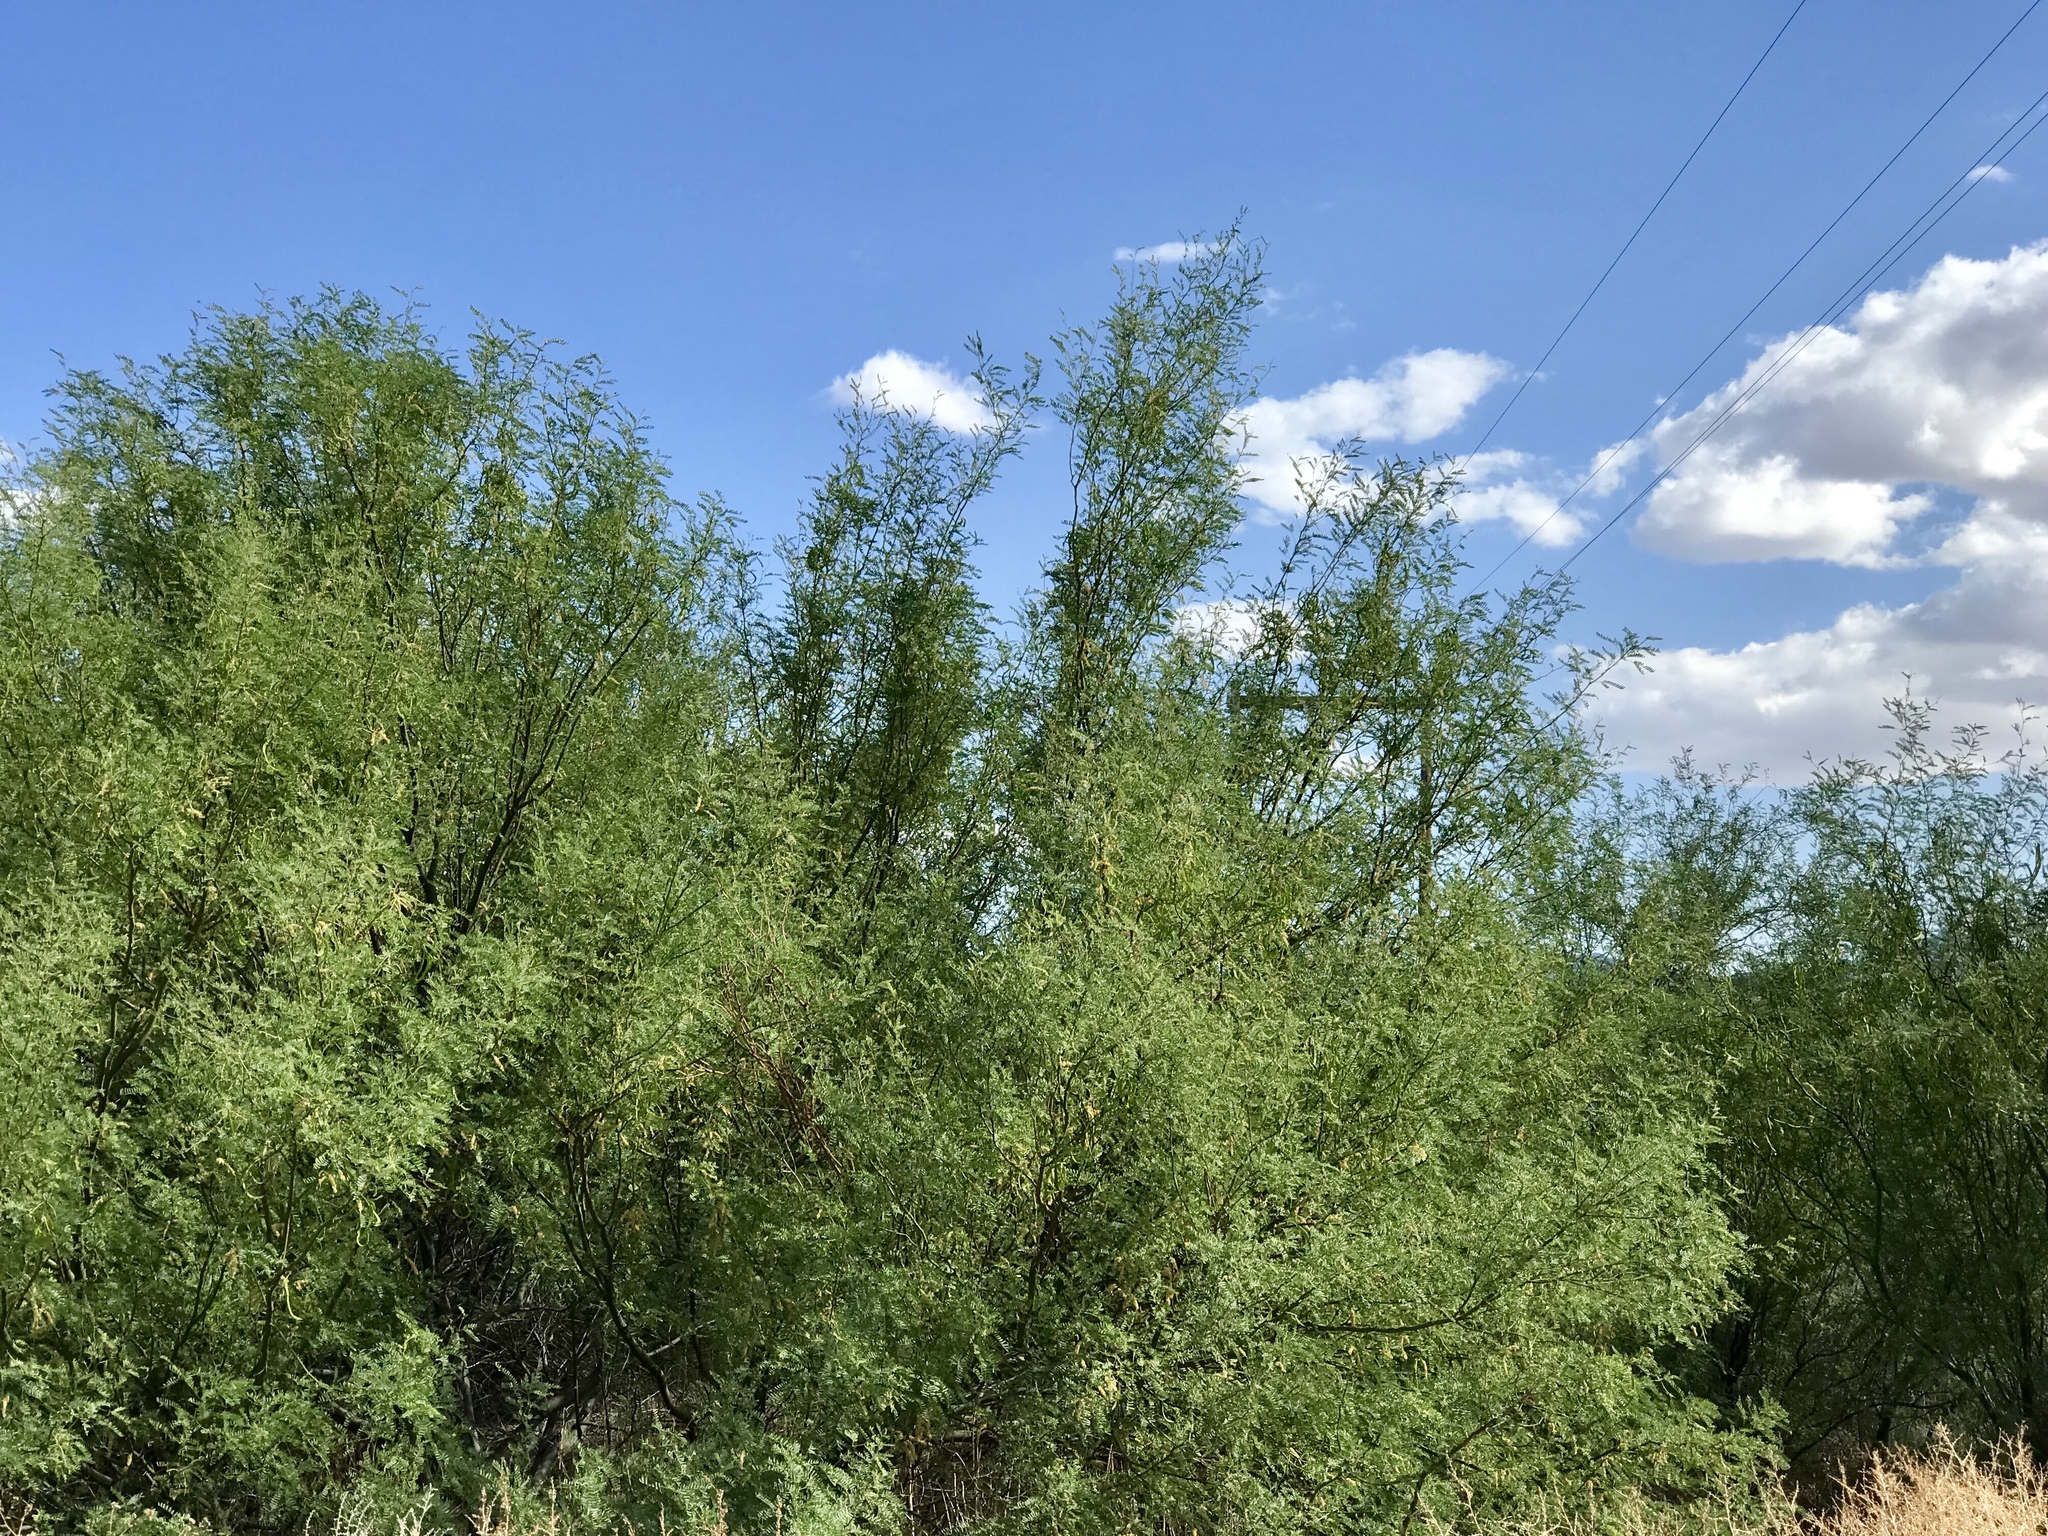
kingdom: Plantae
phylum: Tracheophyta
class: Magnoliopsida
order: Fabales
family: Fabaceae
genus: Prosopis
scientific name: Prosopis glandulosa
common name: Honey mesquite
